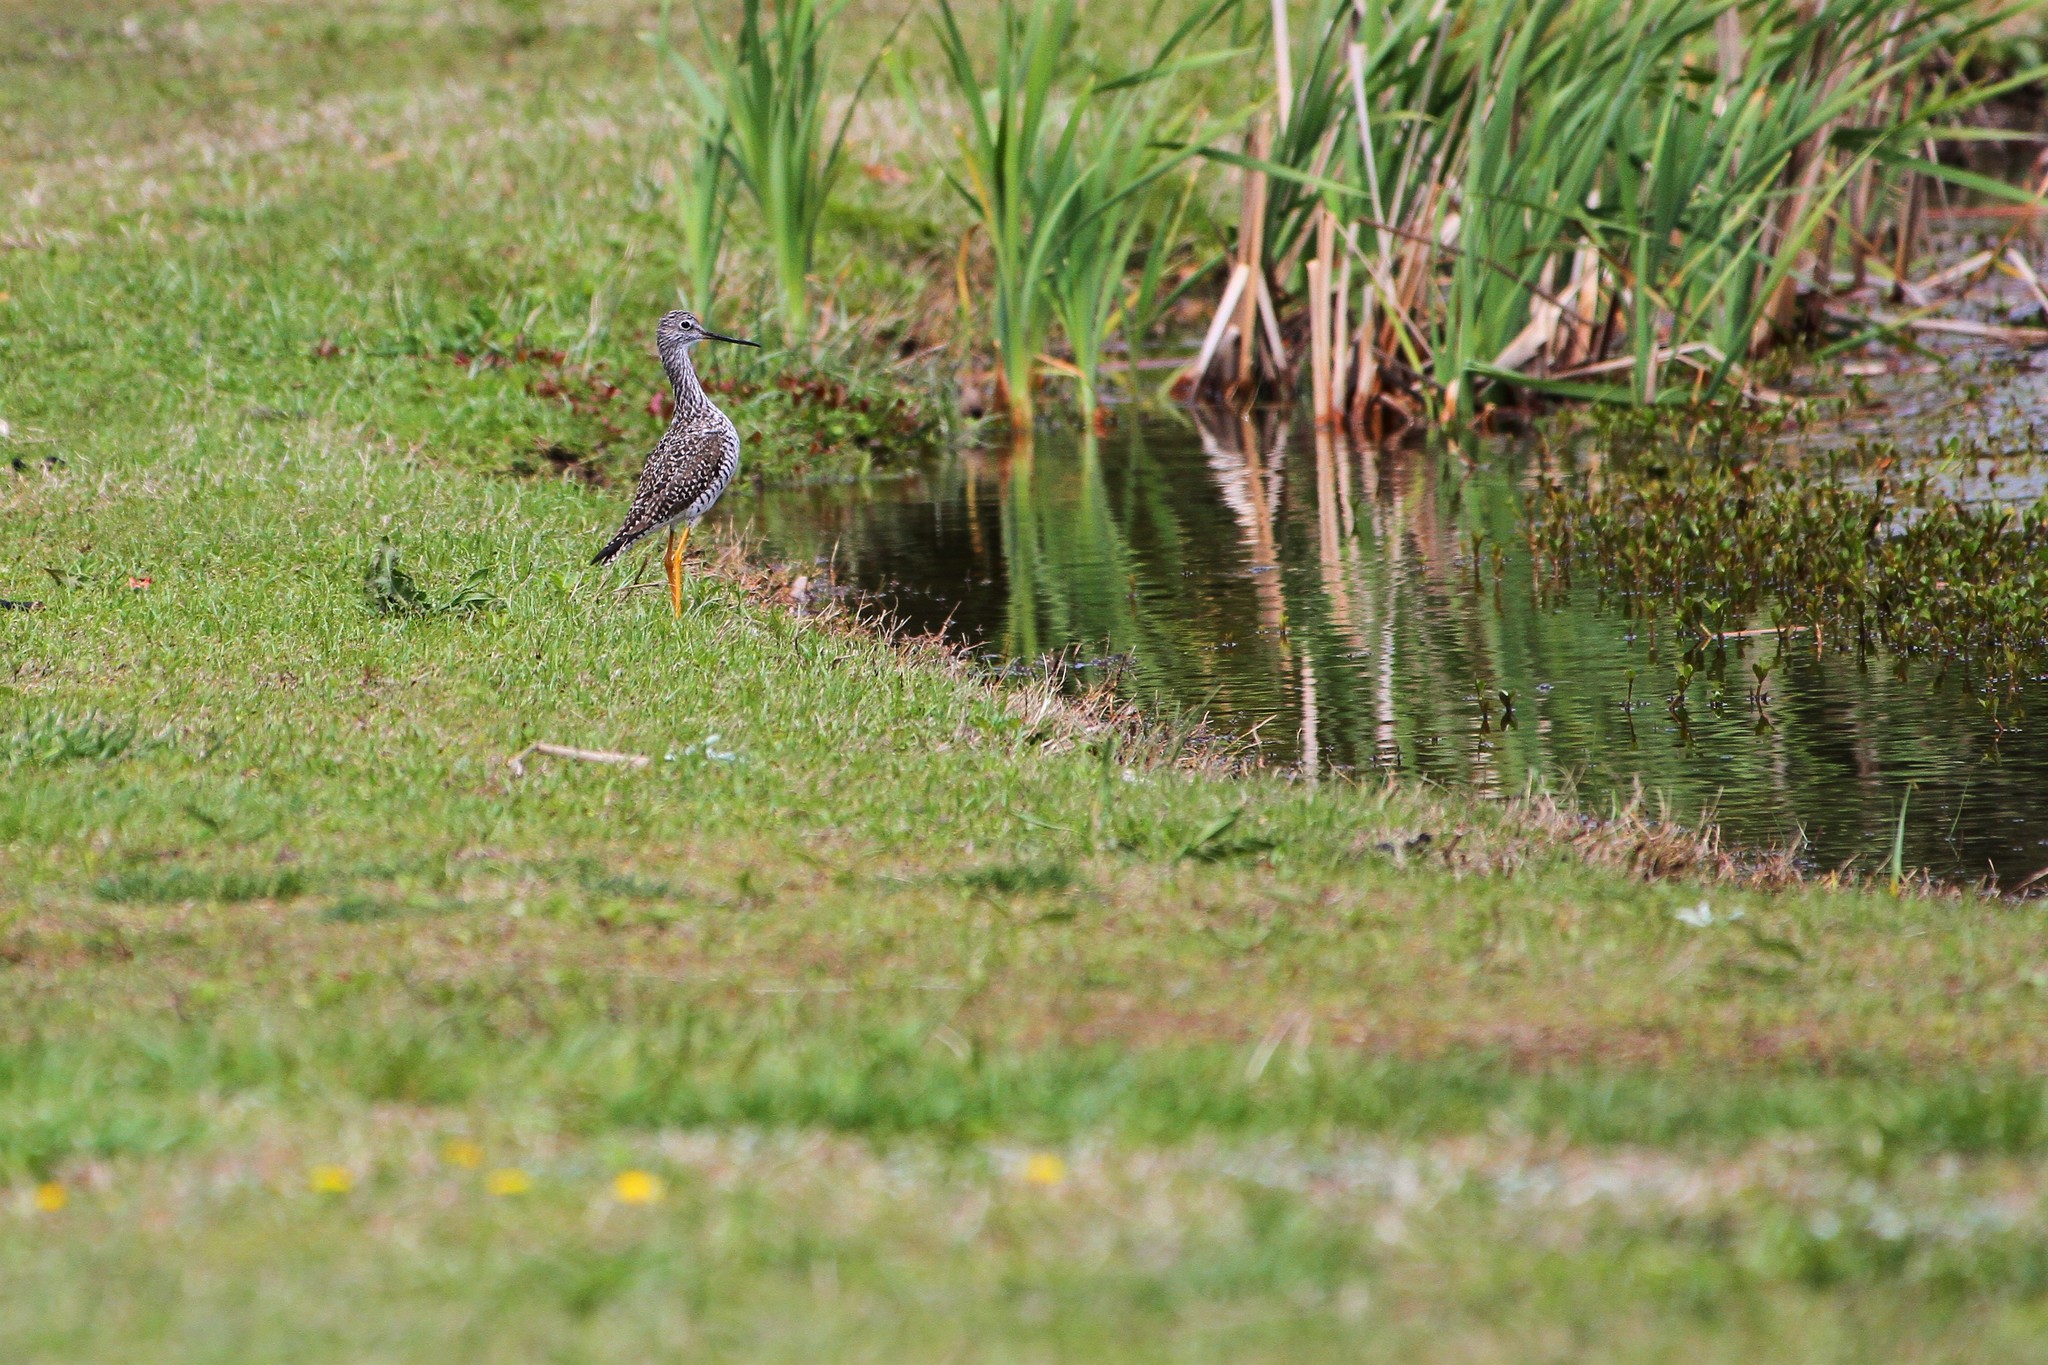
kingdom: Animalia
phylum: Chordata
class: Aves
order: Charadriiformes
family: Scolopacidae
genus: Tringa
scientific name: Tringa melanoleuca
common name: Greater yellowlegs
